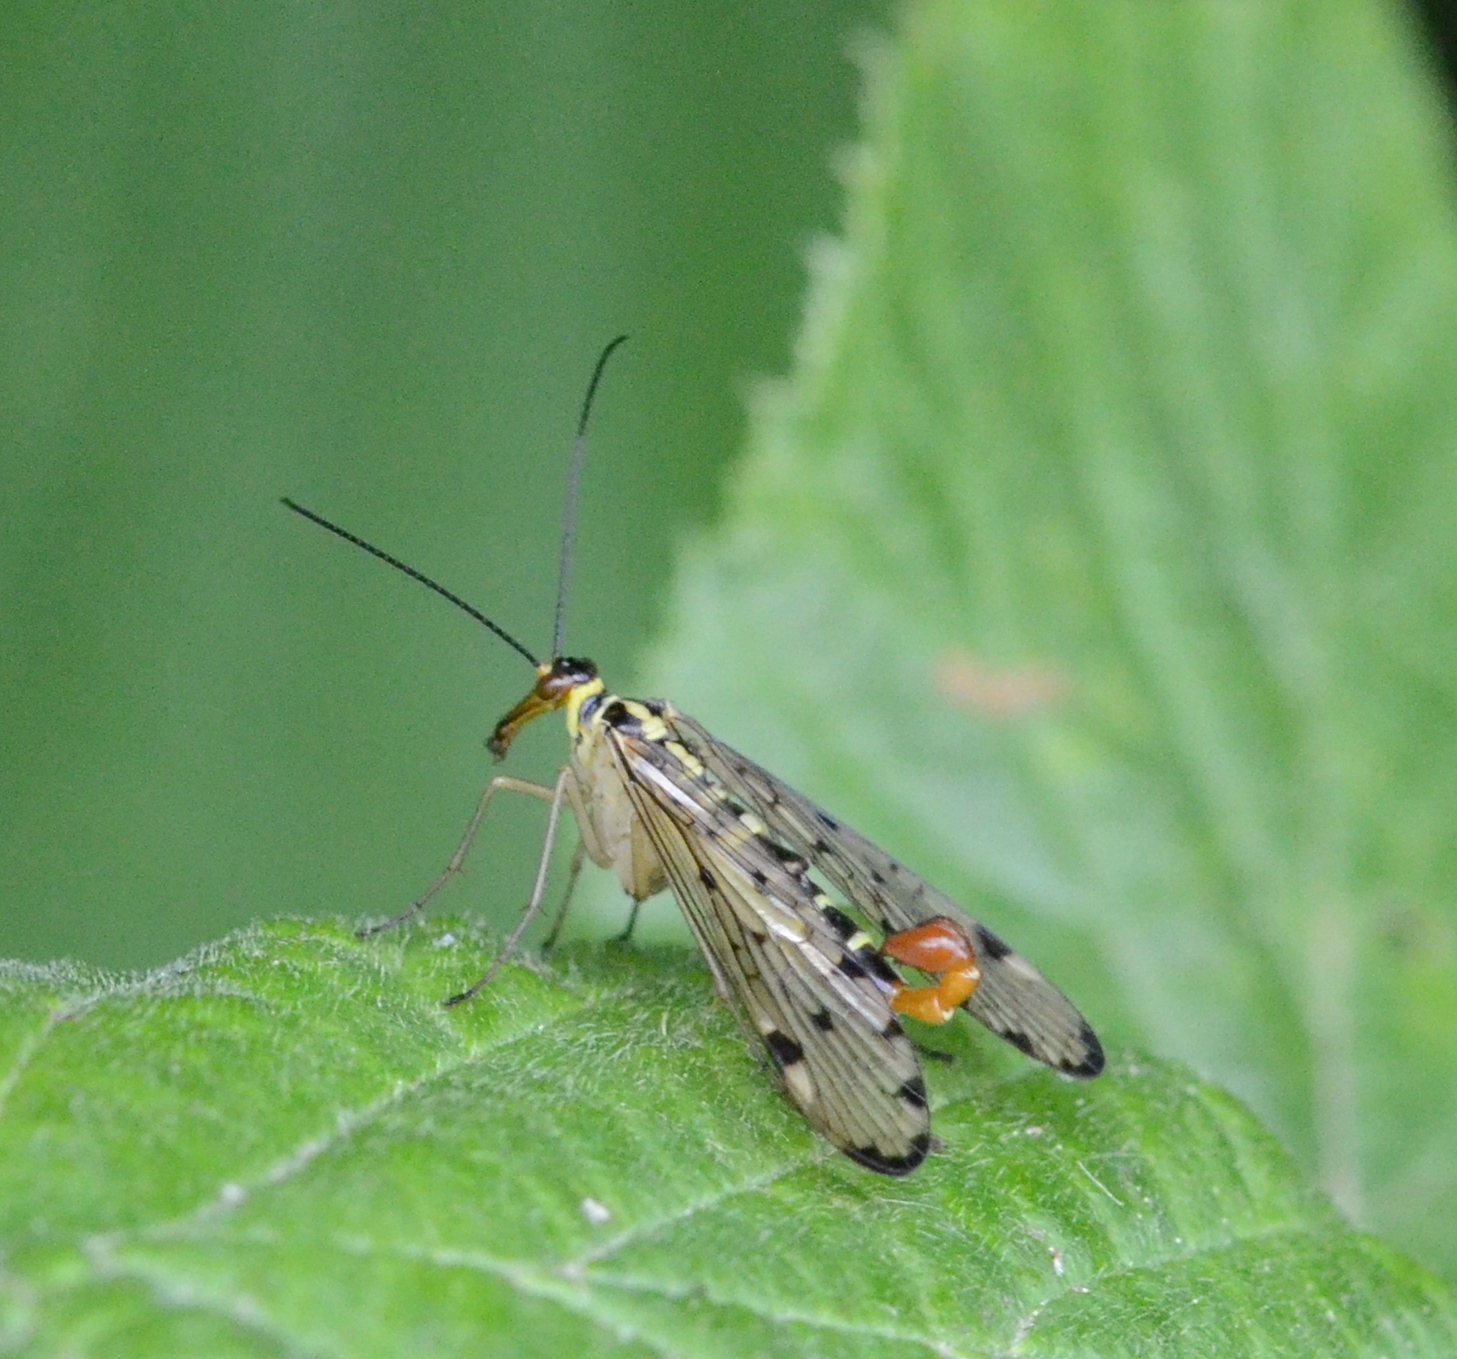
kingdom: Animalia
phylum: Arthropoda
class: Insecta
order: Mecoptera
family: Panorpidae
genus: Panorpa
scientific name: Panorpa germanica
